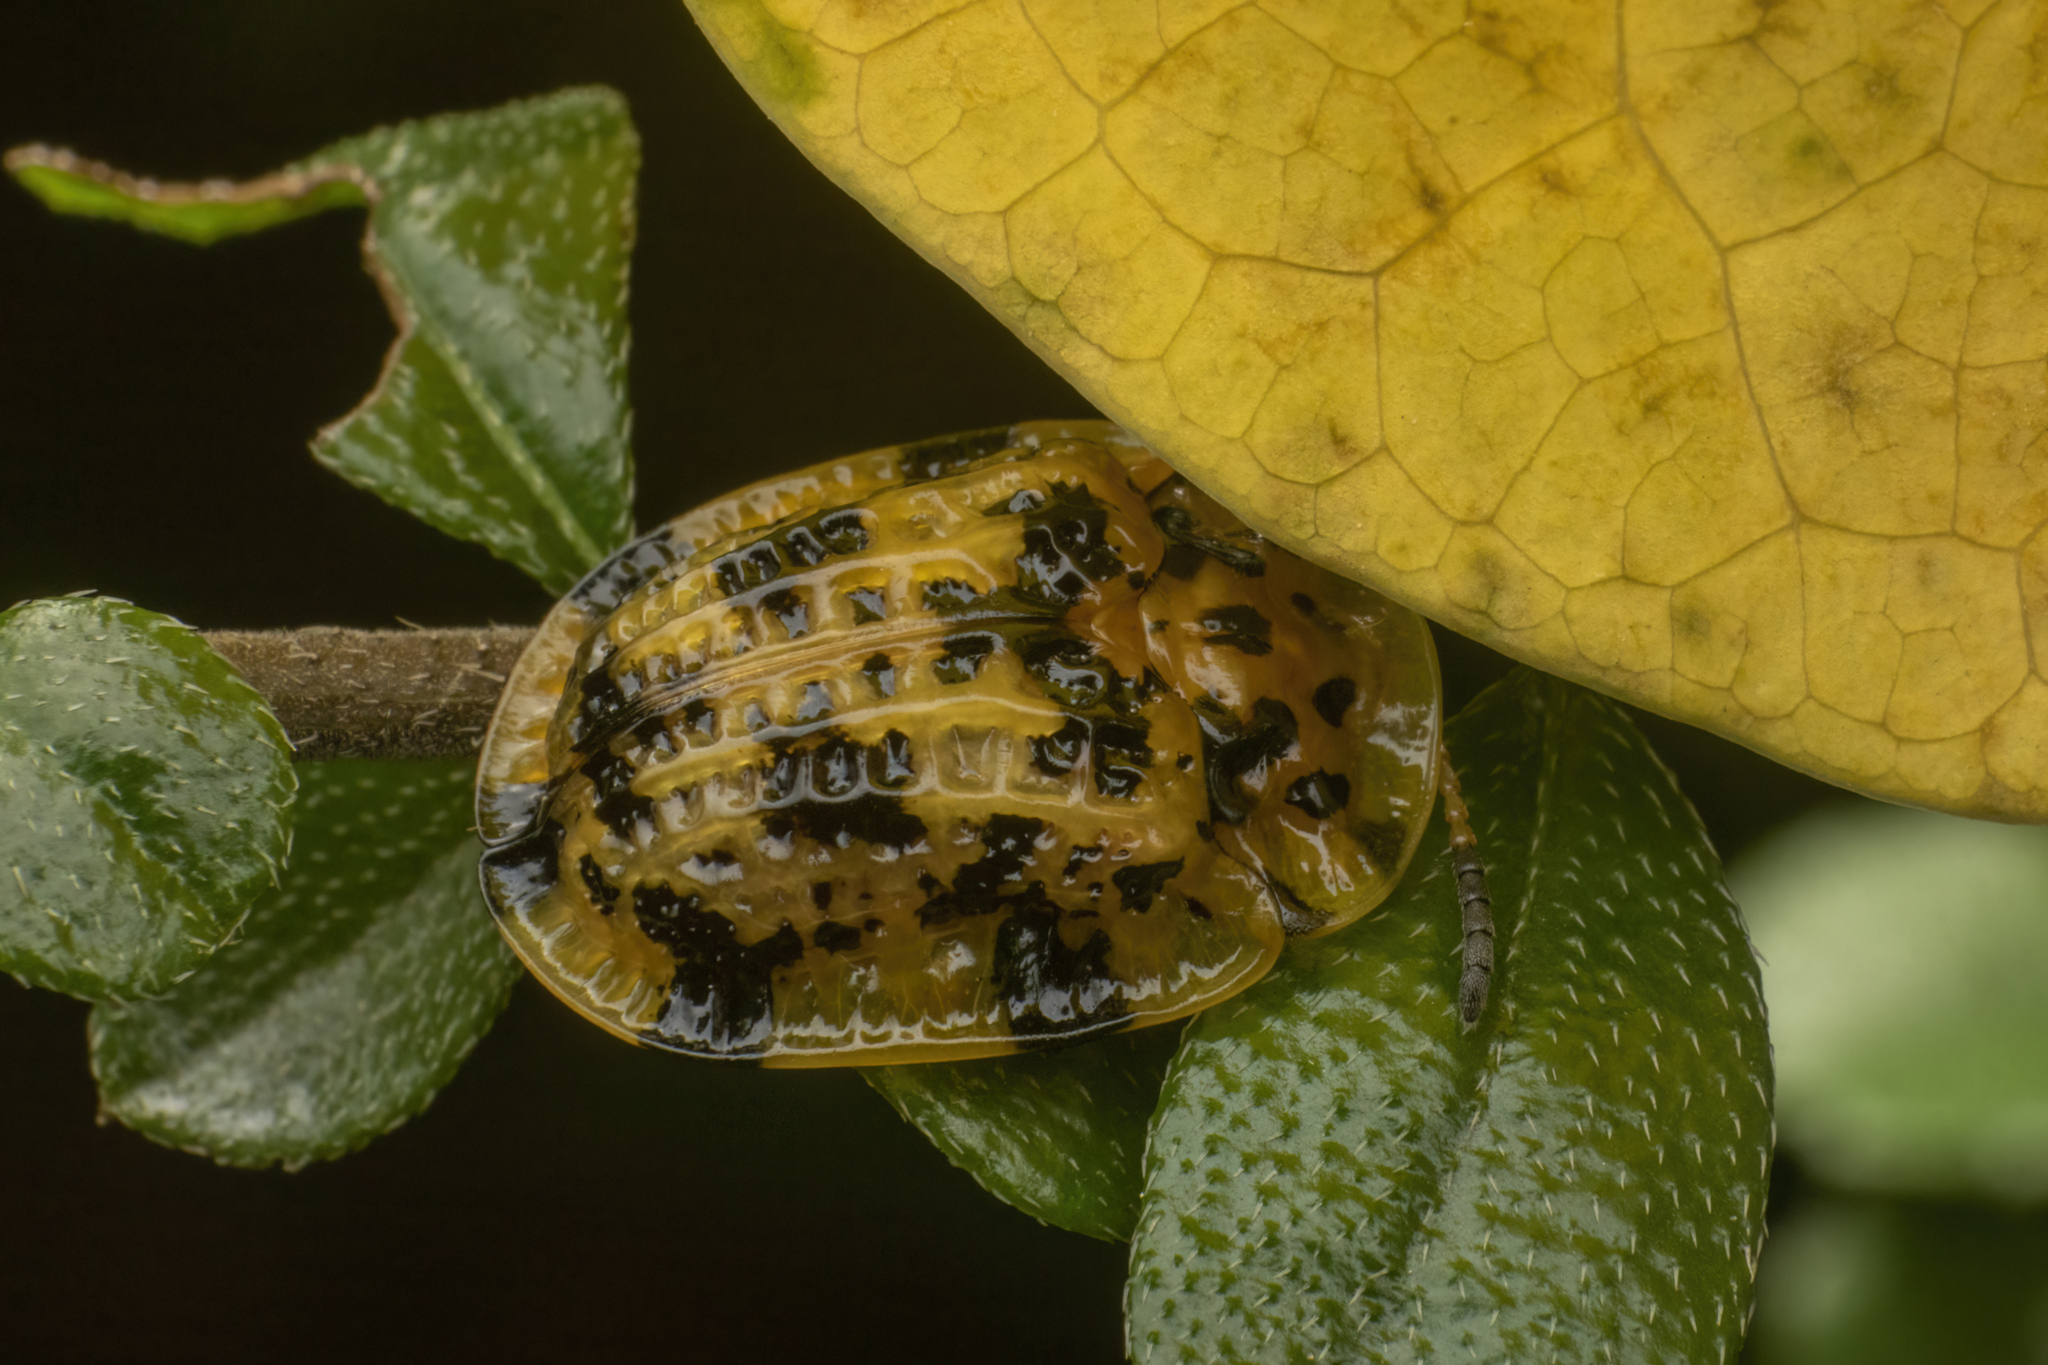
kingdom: Animalia
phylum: Arthropoda
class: Insecta
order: Coleoptera
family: Chrysomelidae
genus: Laccoptera
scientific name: Laccoptera sulcata
